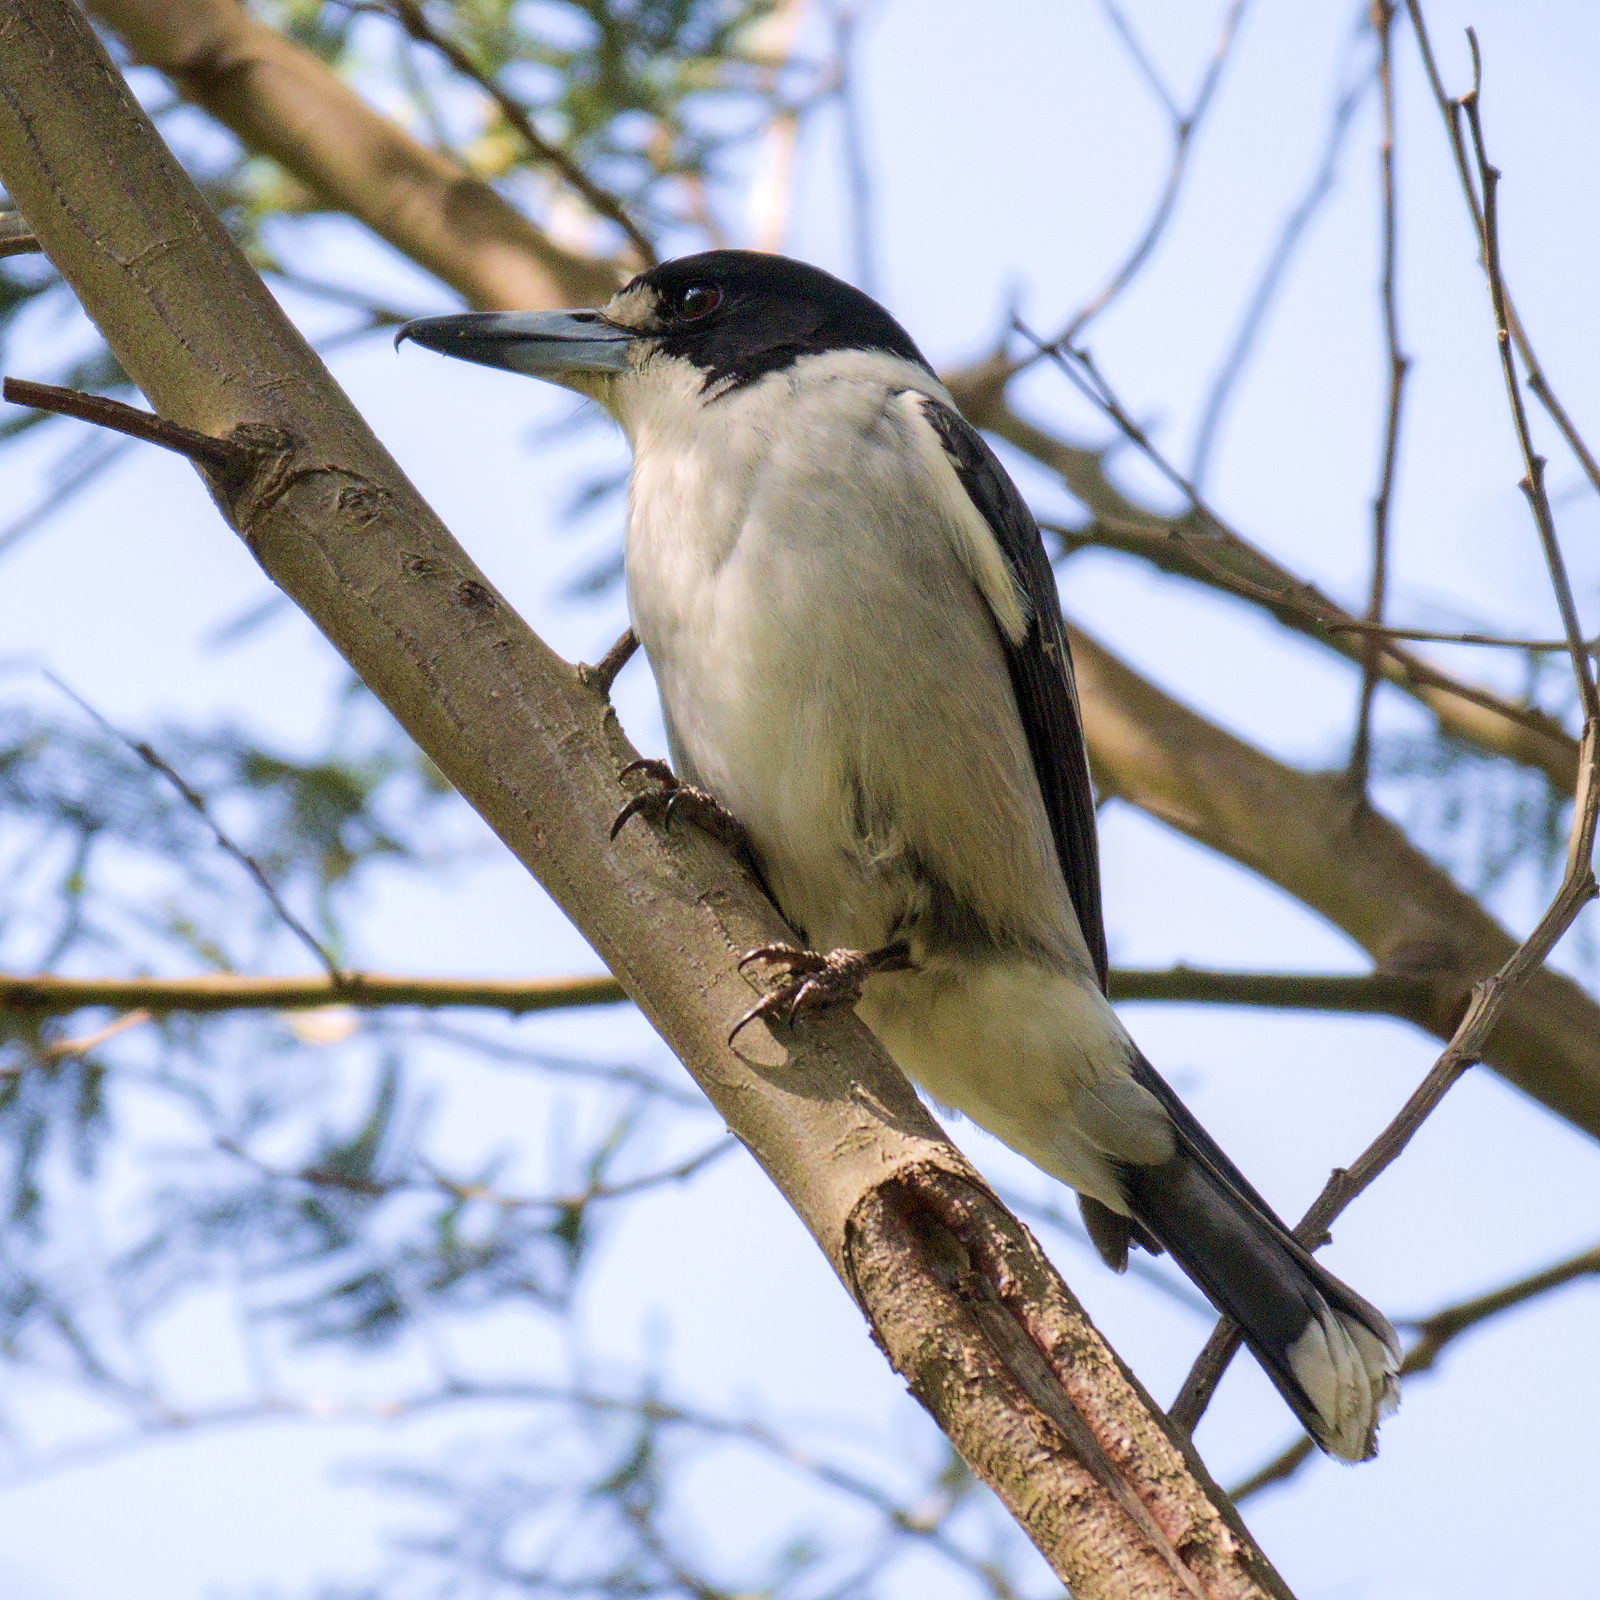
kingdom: Animalia
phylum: Chordata
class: Aves
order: Passeriformes
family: Cracticidae
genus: Cracticus
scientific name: Cracticus torquatus
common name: Grey butcherbird
